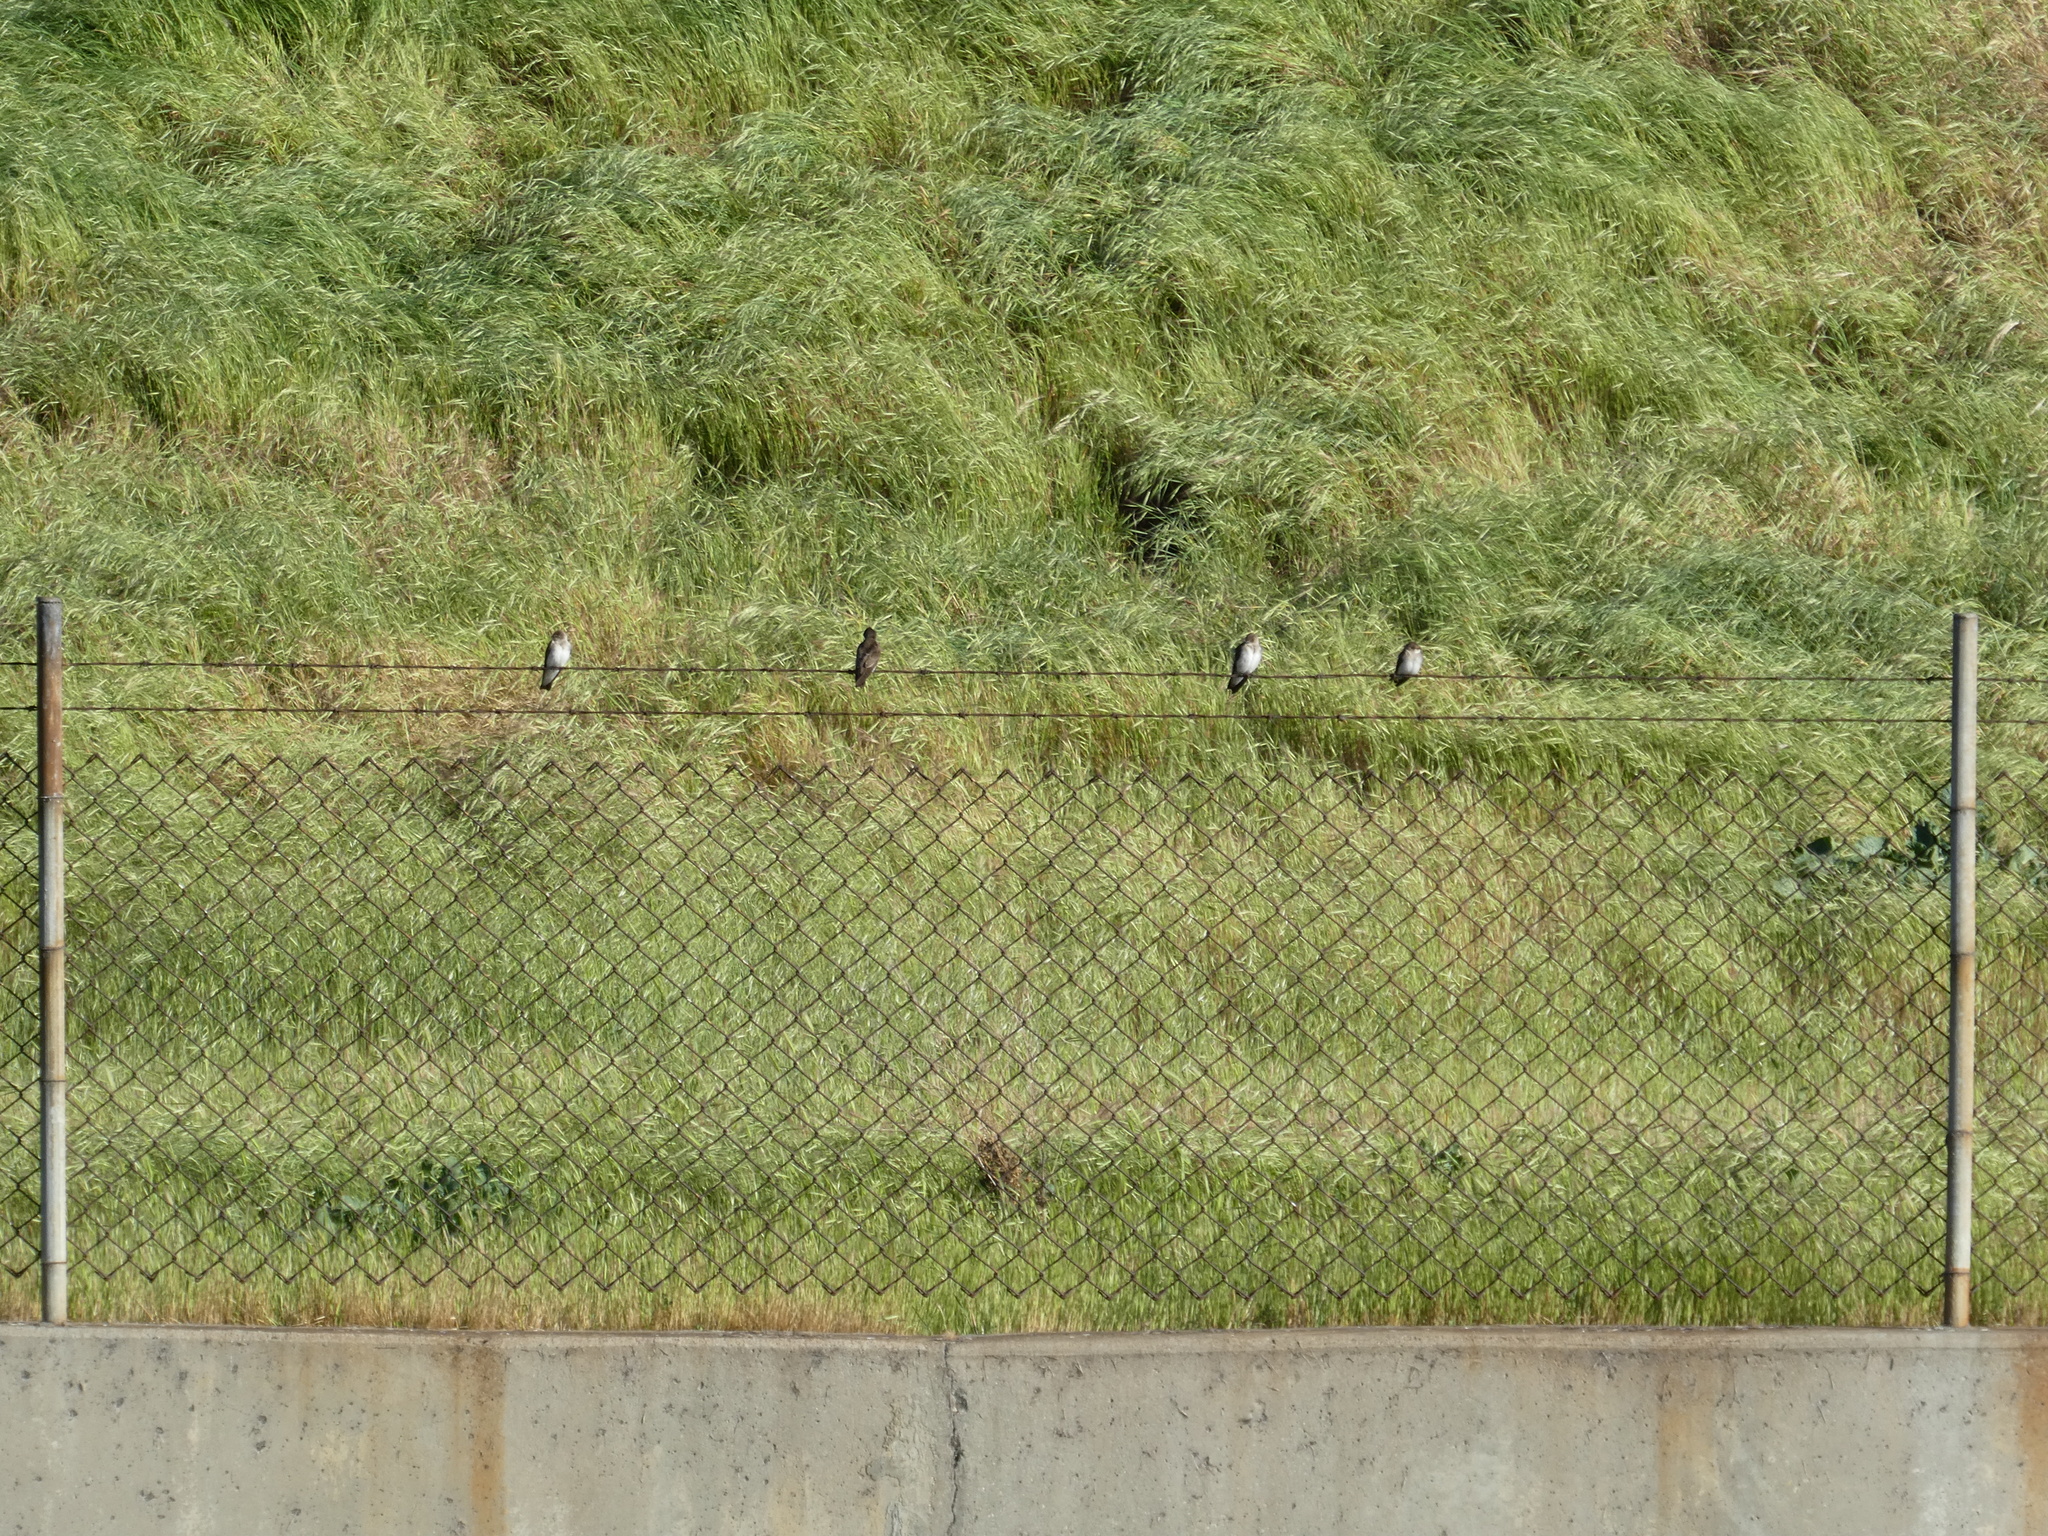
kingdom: Animalia
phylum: Chordata
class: Aves
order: Passeriformes
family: Hirundinidae
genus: Stelgidopteryx
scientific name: Stelgidopteryx serripennis
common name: Northern rough-winged swallow
